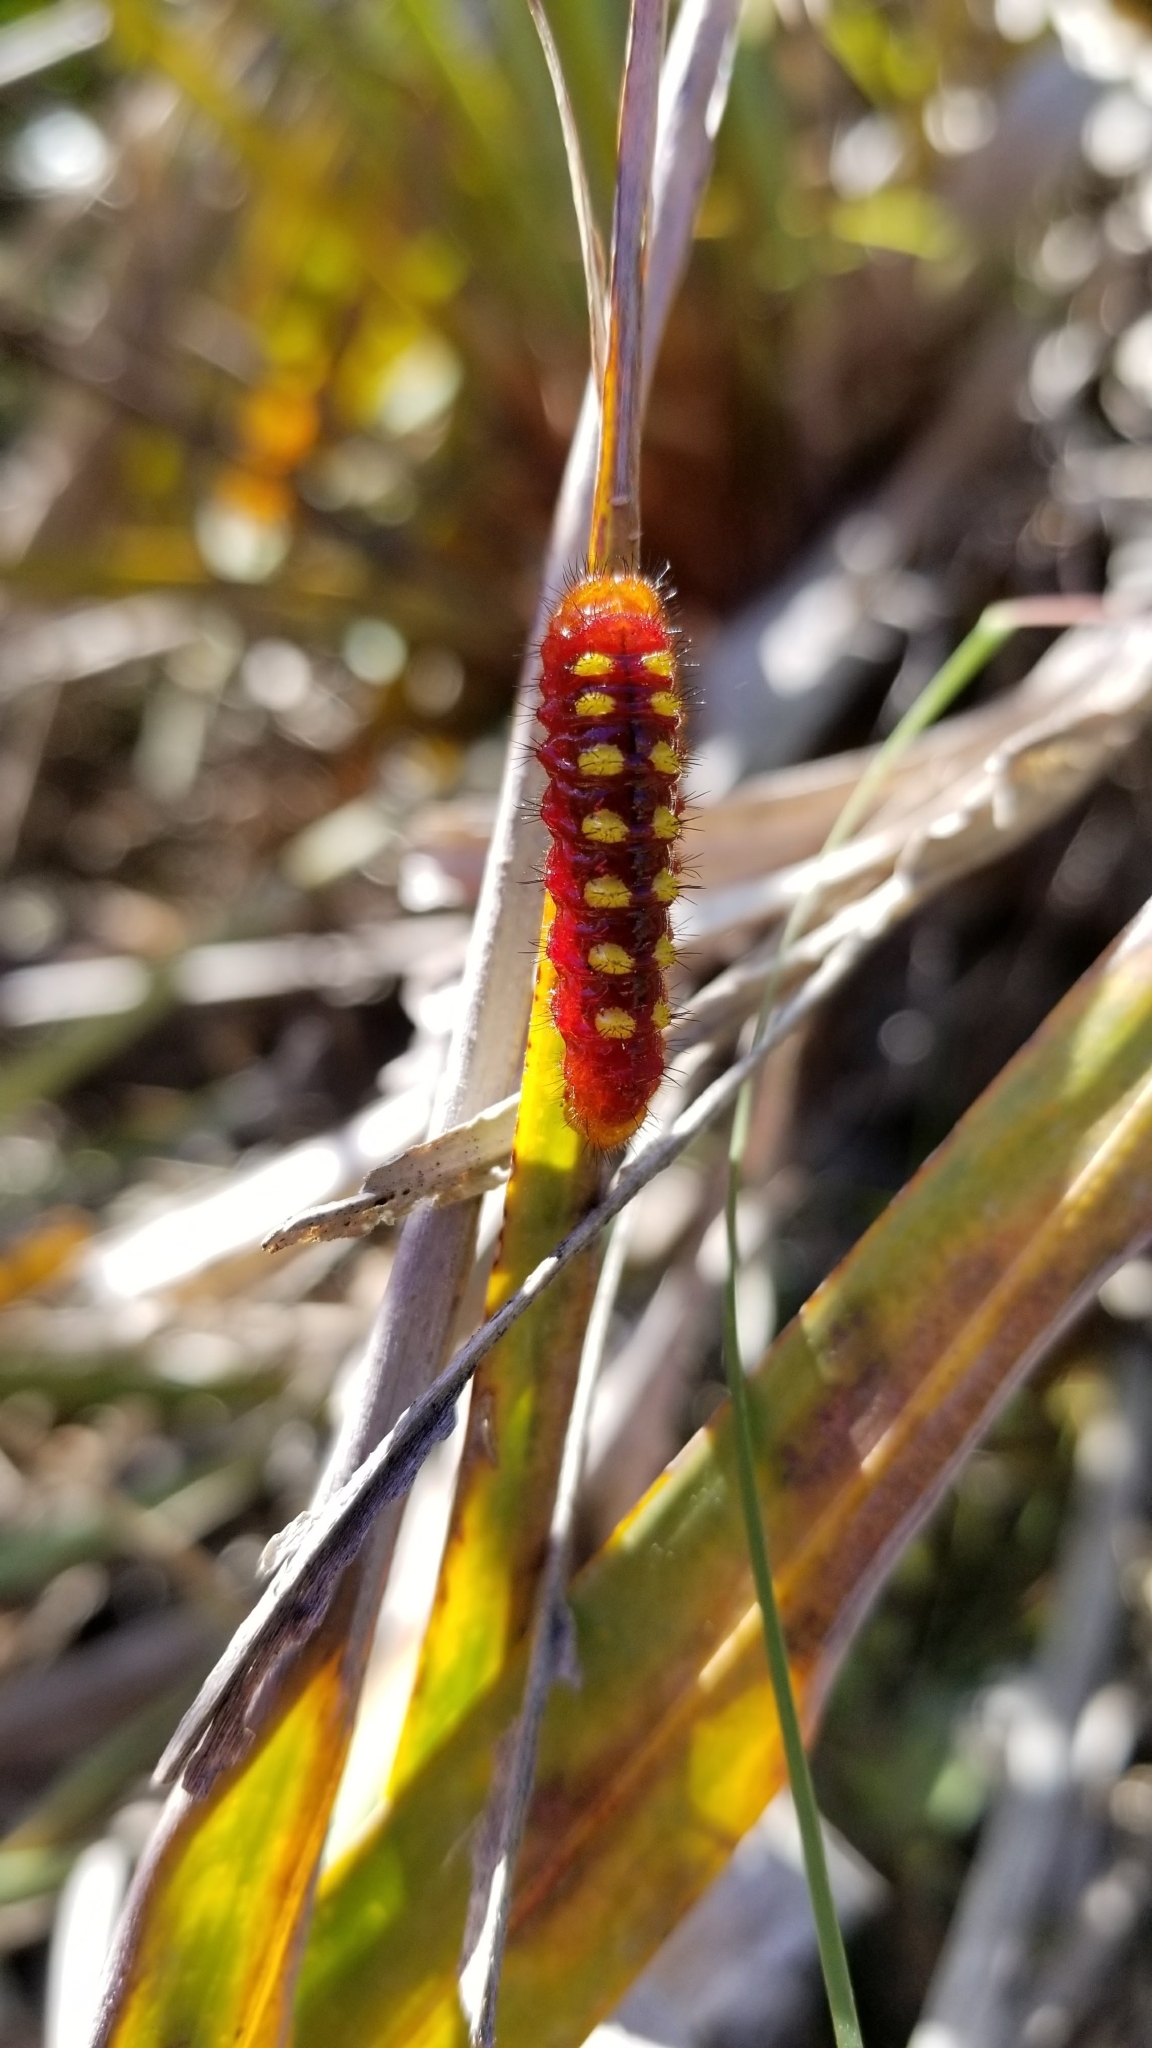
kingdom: Animalia
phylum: Arthropoda
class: Insecta
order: Lepidoptera
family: Lycaenidae
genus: Eumaeus
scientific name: Eumaeus atala
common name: Atala
